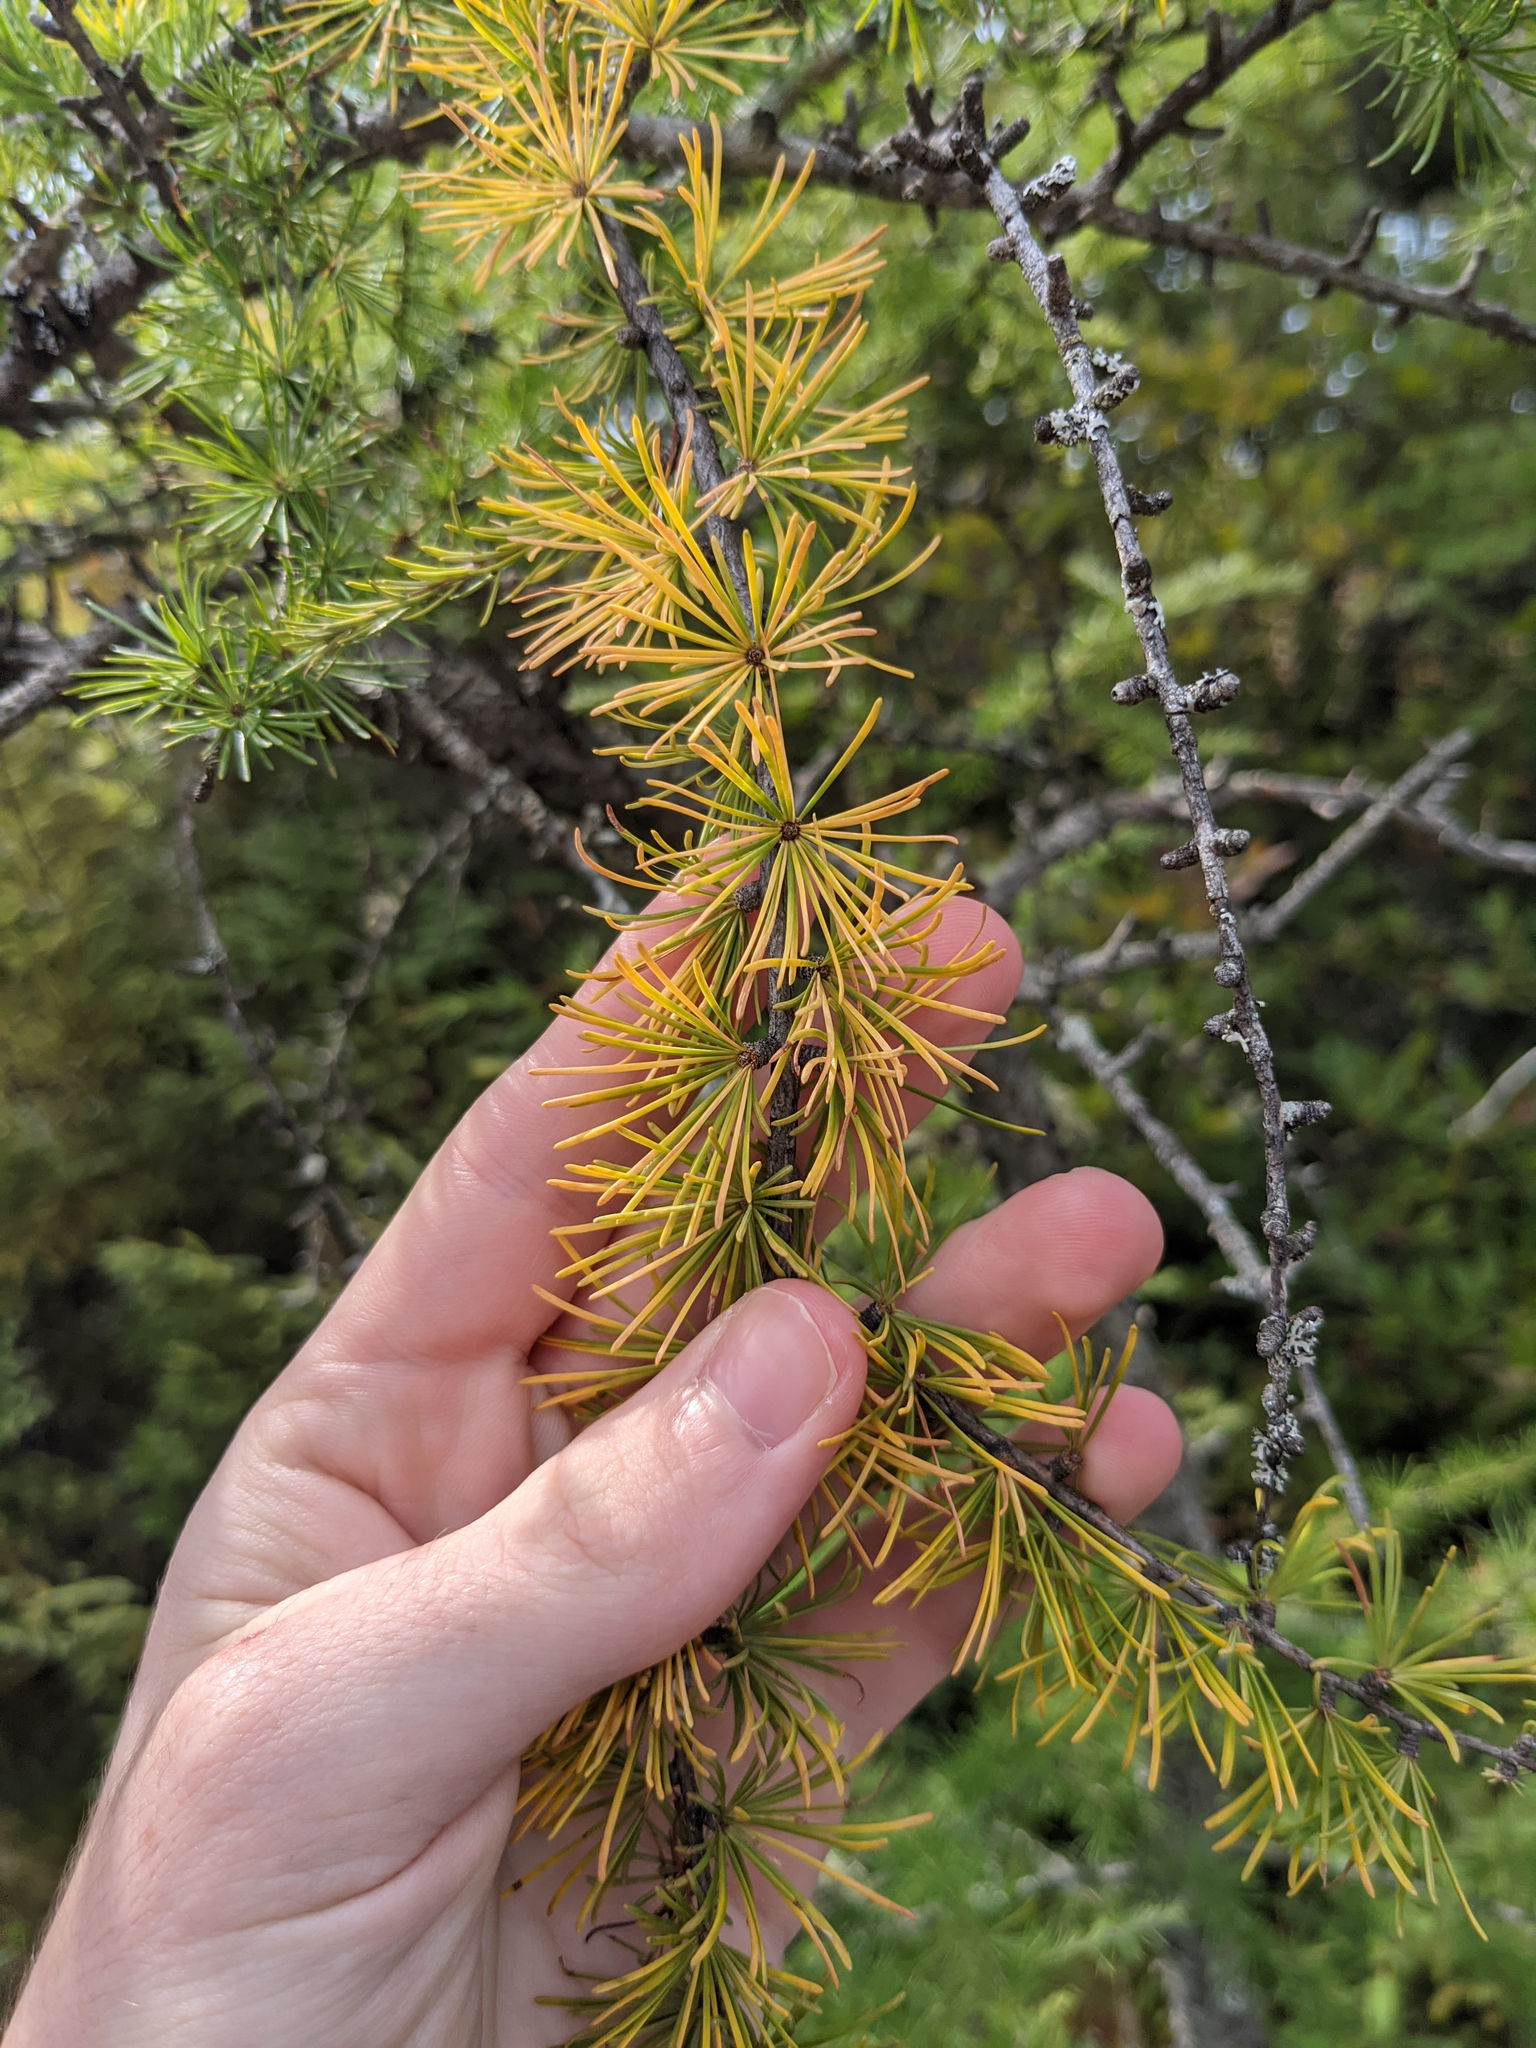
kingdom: Plantae
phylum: Tracheophyta
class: Pinopsida
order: Pinales
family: Pinaceae
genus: Larix
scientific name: Larix laricina
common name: American larch
